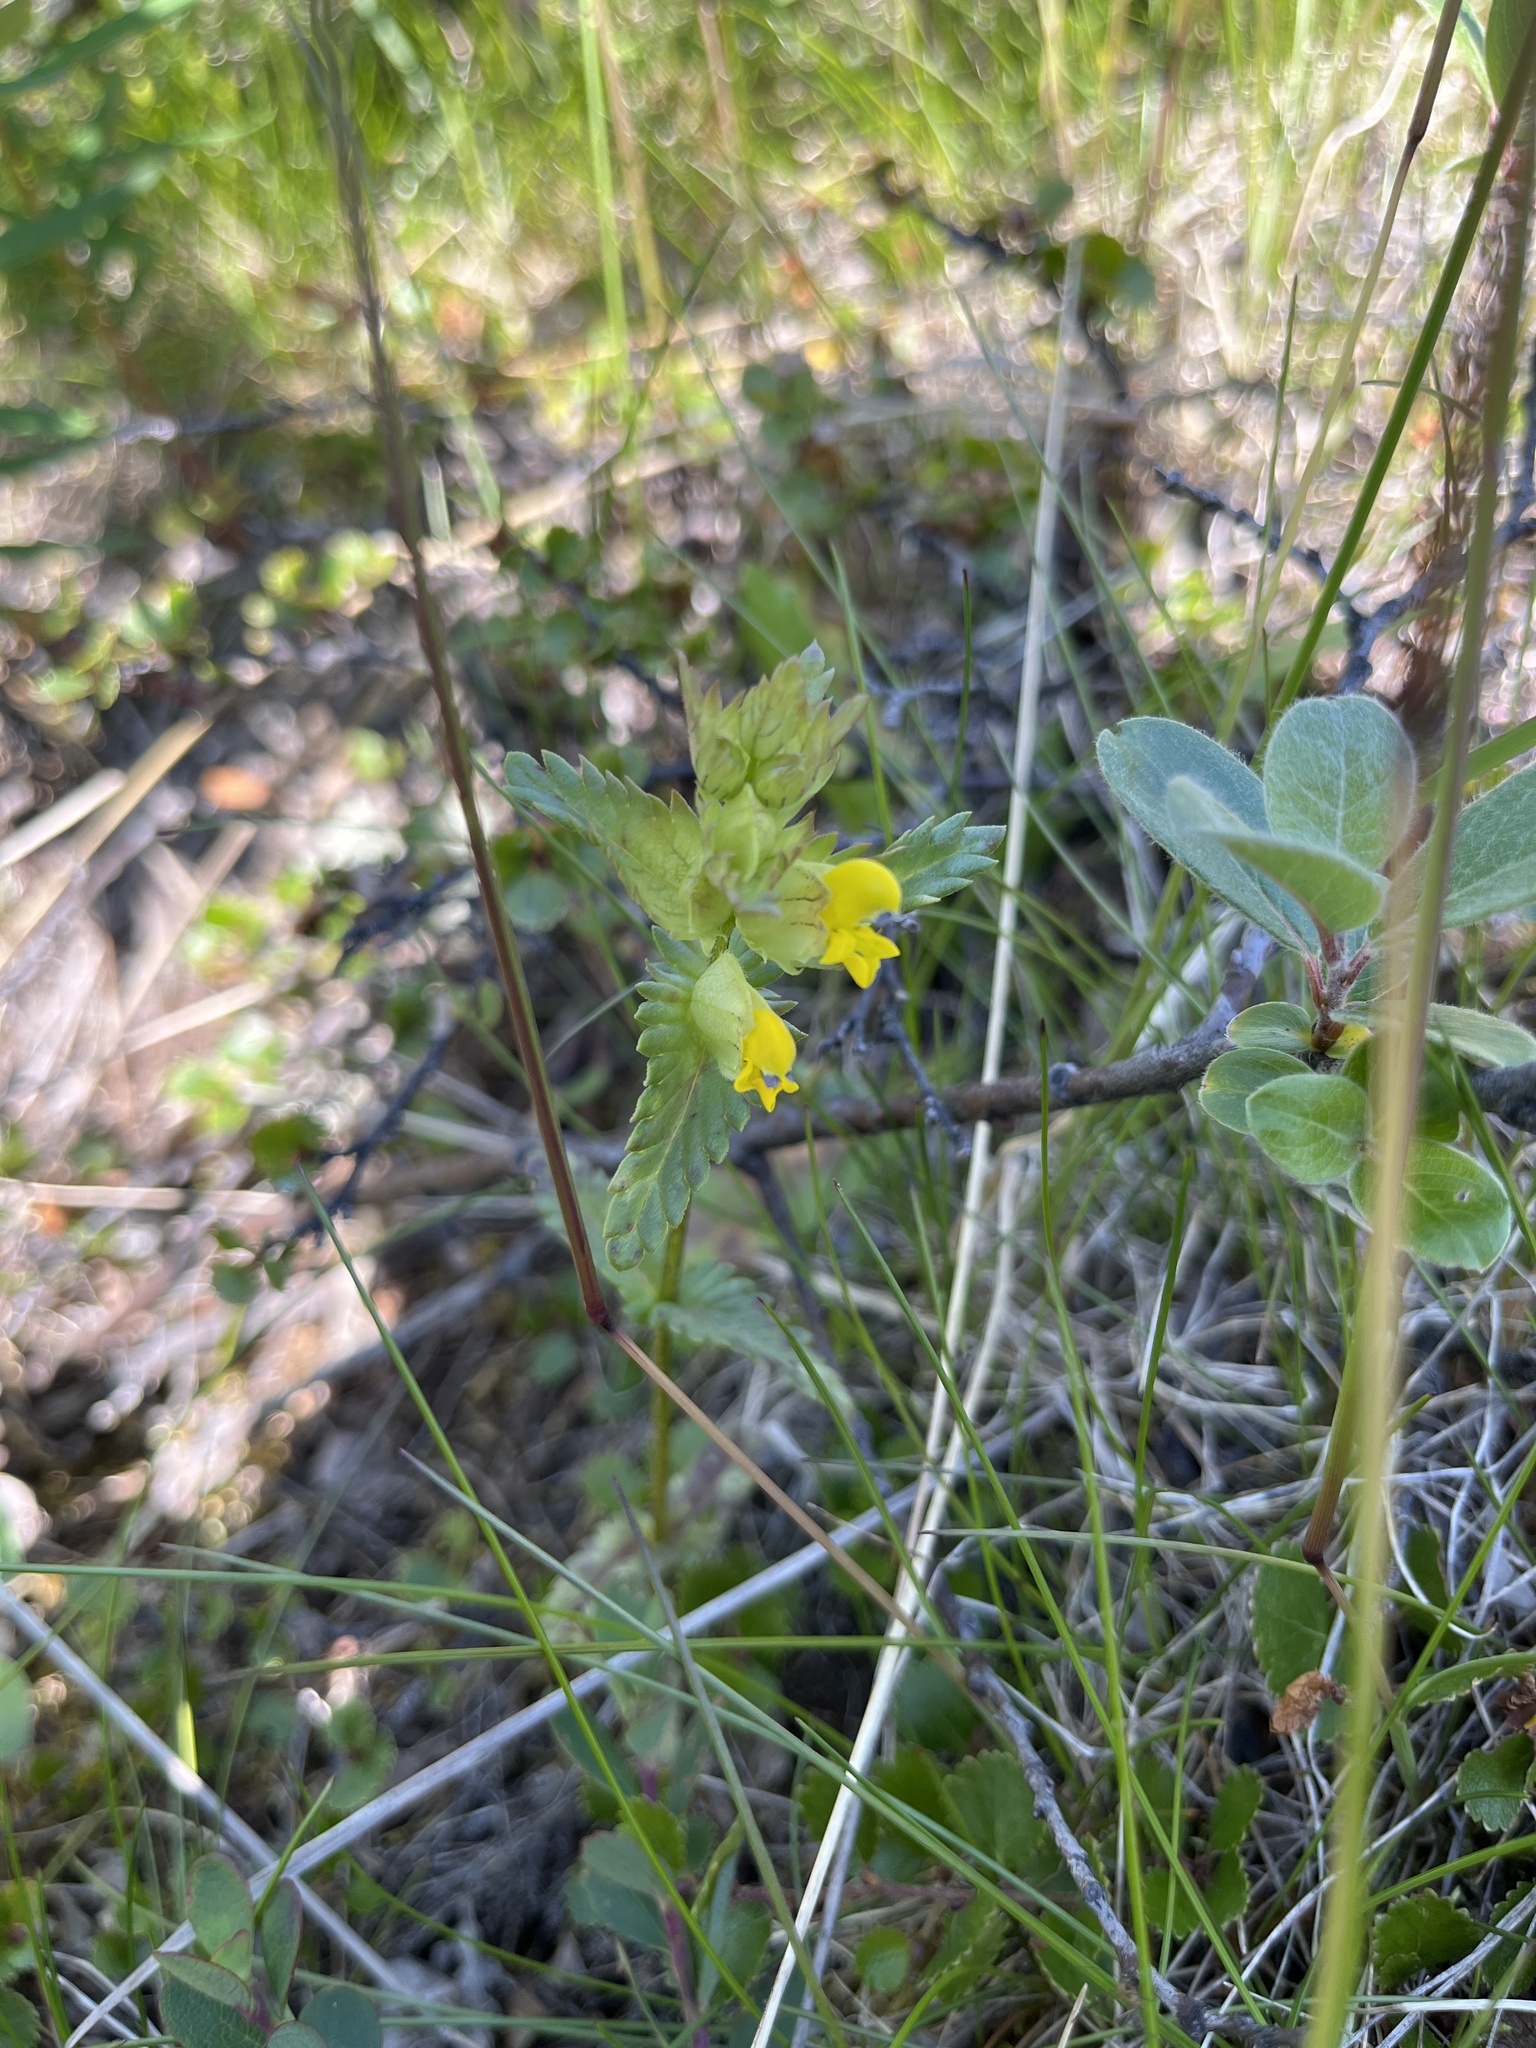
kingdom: Plantae
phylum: Tracheophyta
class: Magnoliopsida
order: Lamiales
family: Orobanchaceae
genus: Rhinanthus
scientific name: Rhinanthus minor
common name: Yellow-rattle
